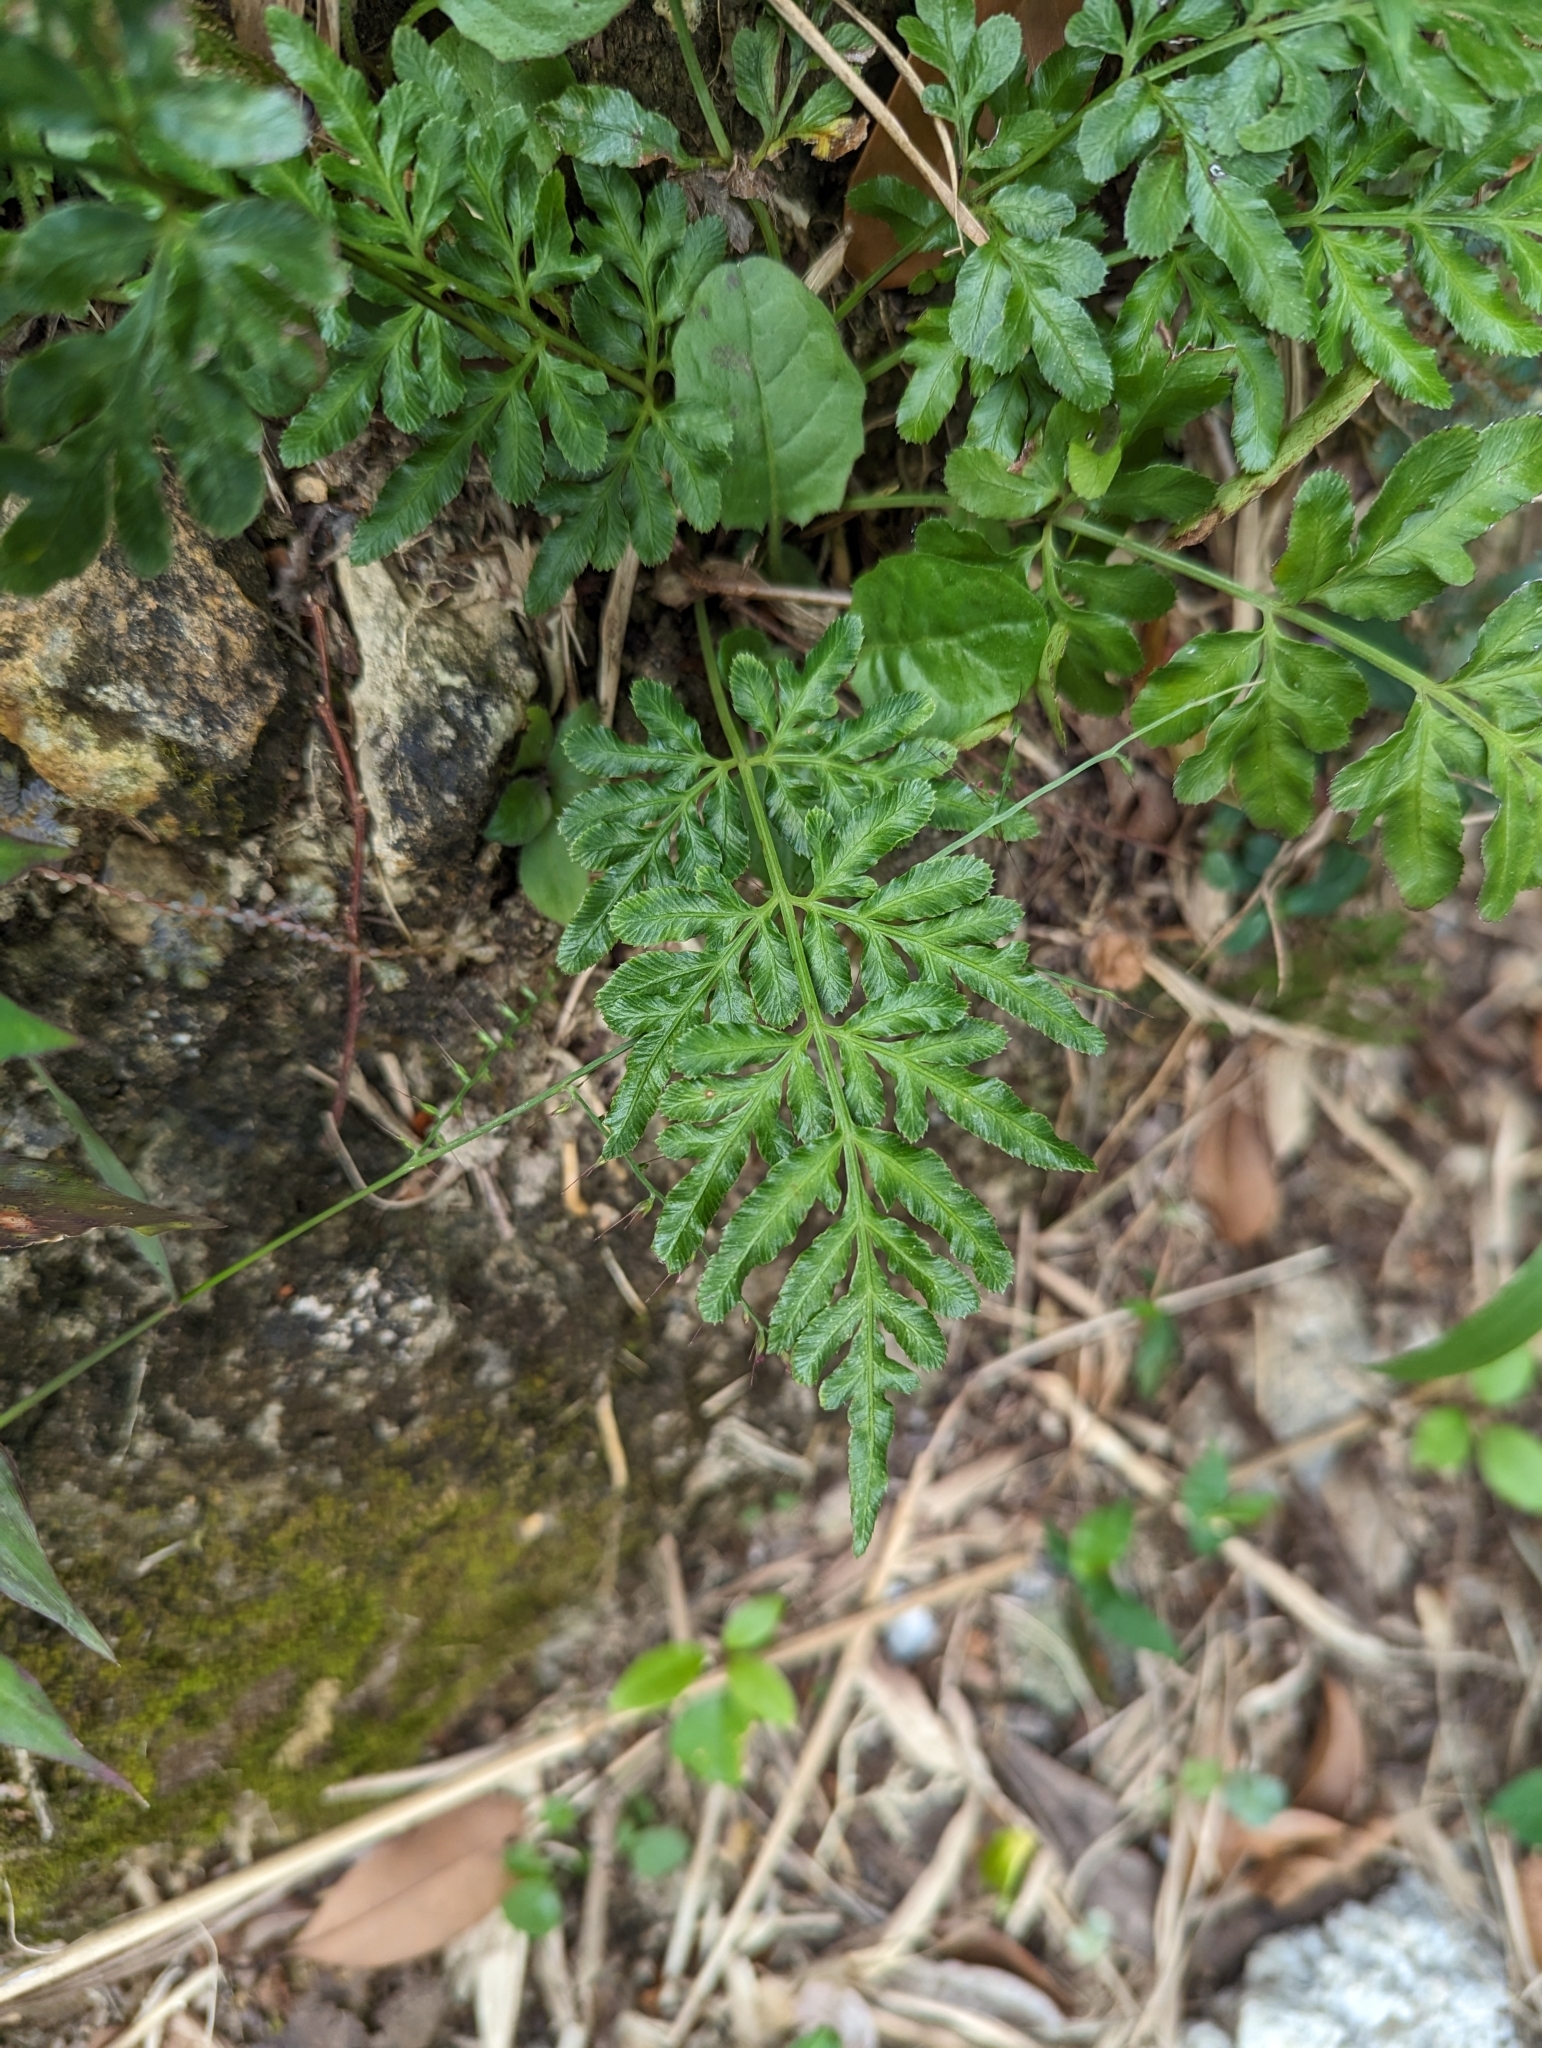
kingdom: Plantae
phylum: Tracheophyta
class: Polypodiopsida
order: Polypodiales
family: Pteridaceae
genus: Pteris
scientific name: Pteris ensiformis
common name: Sword brake
